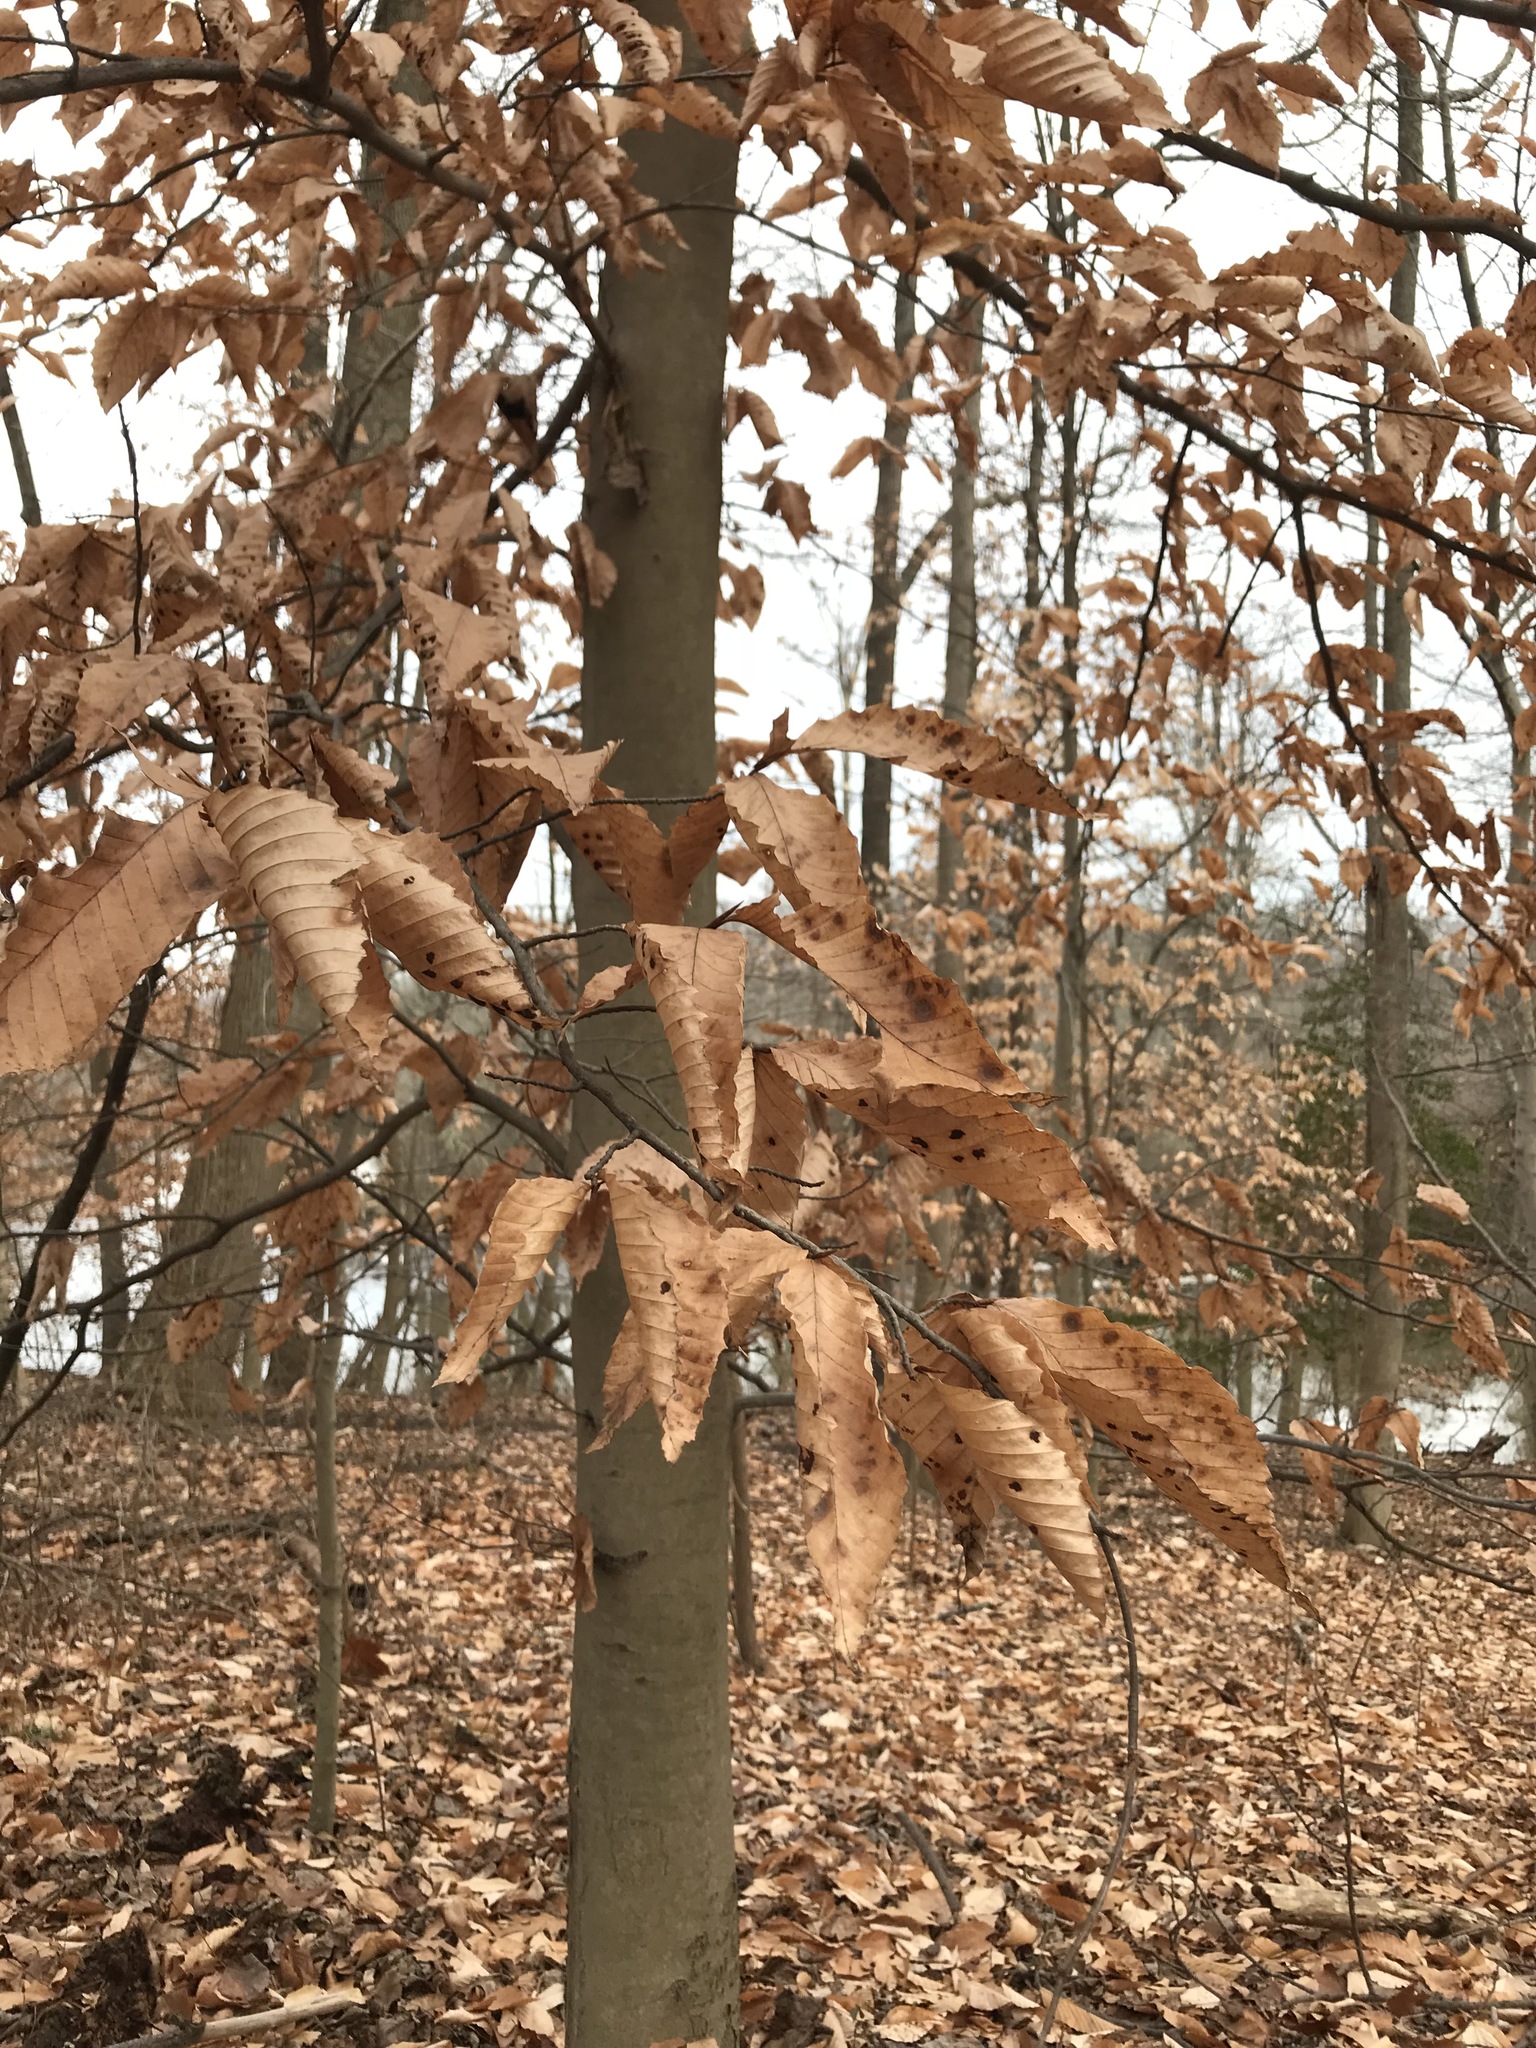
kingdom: Plantae
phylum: Tracheophyta
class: Magnoliopsida
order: Fagales
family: Fagaceae
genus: Fagus
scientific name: Fagus grandifolia
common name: American beech
